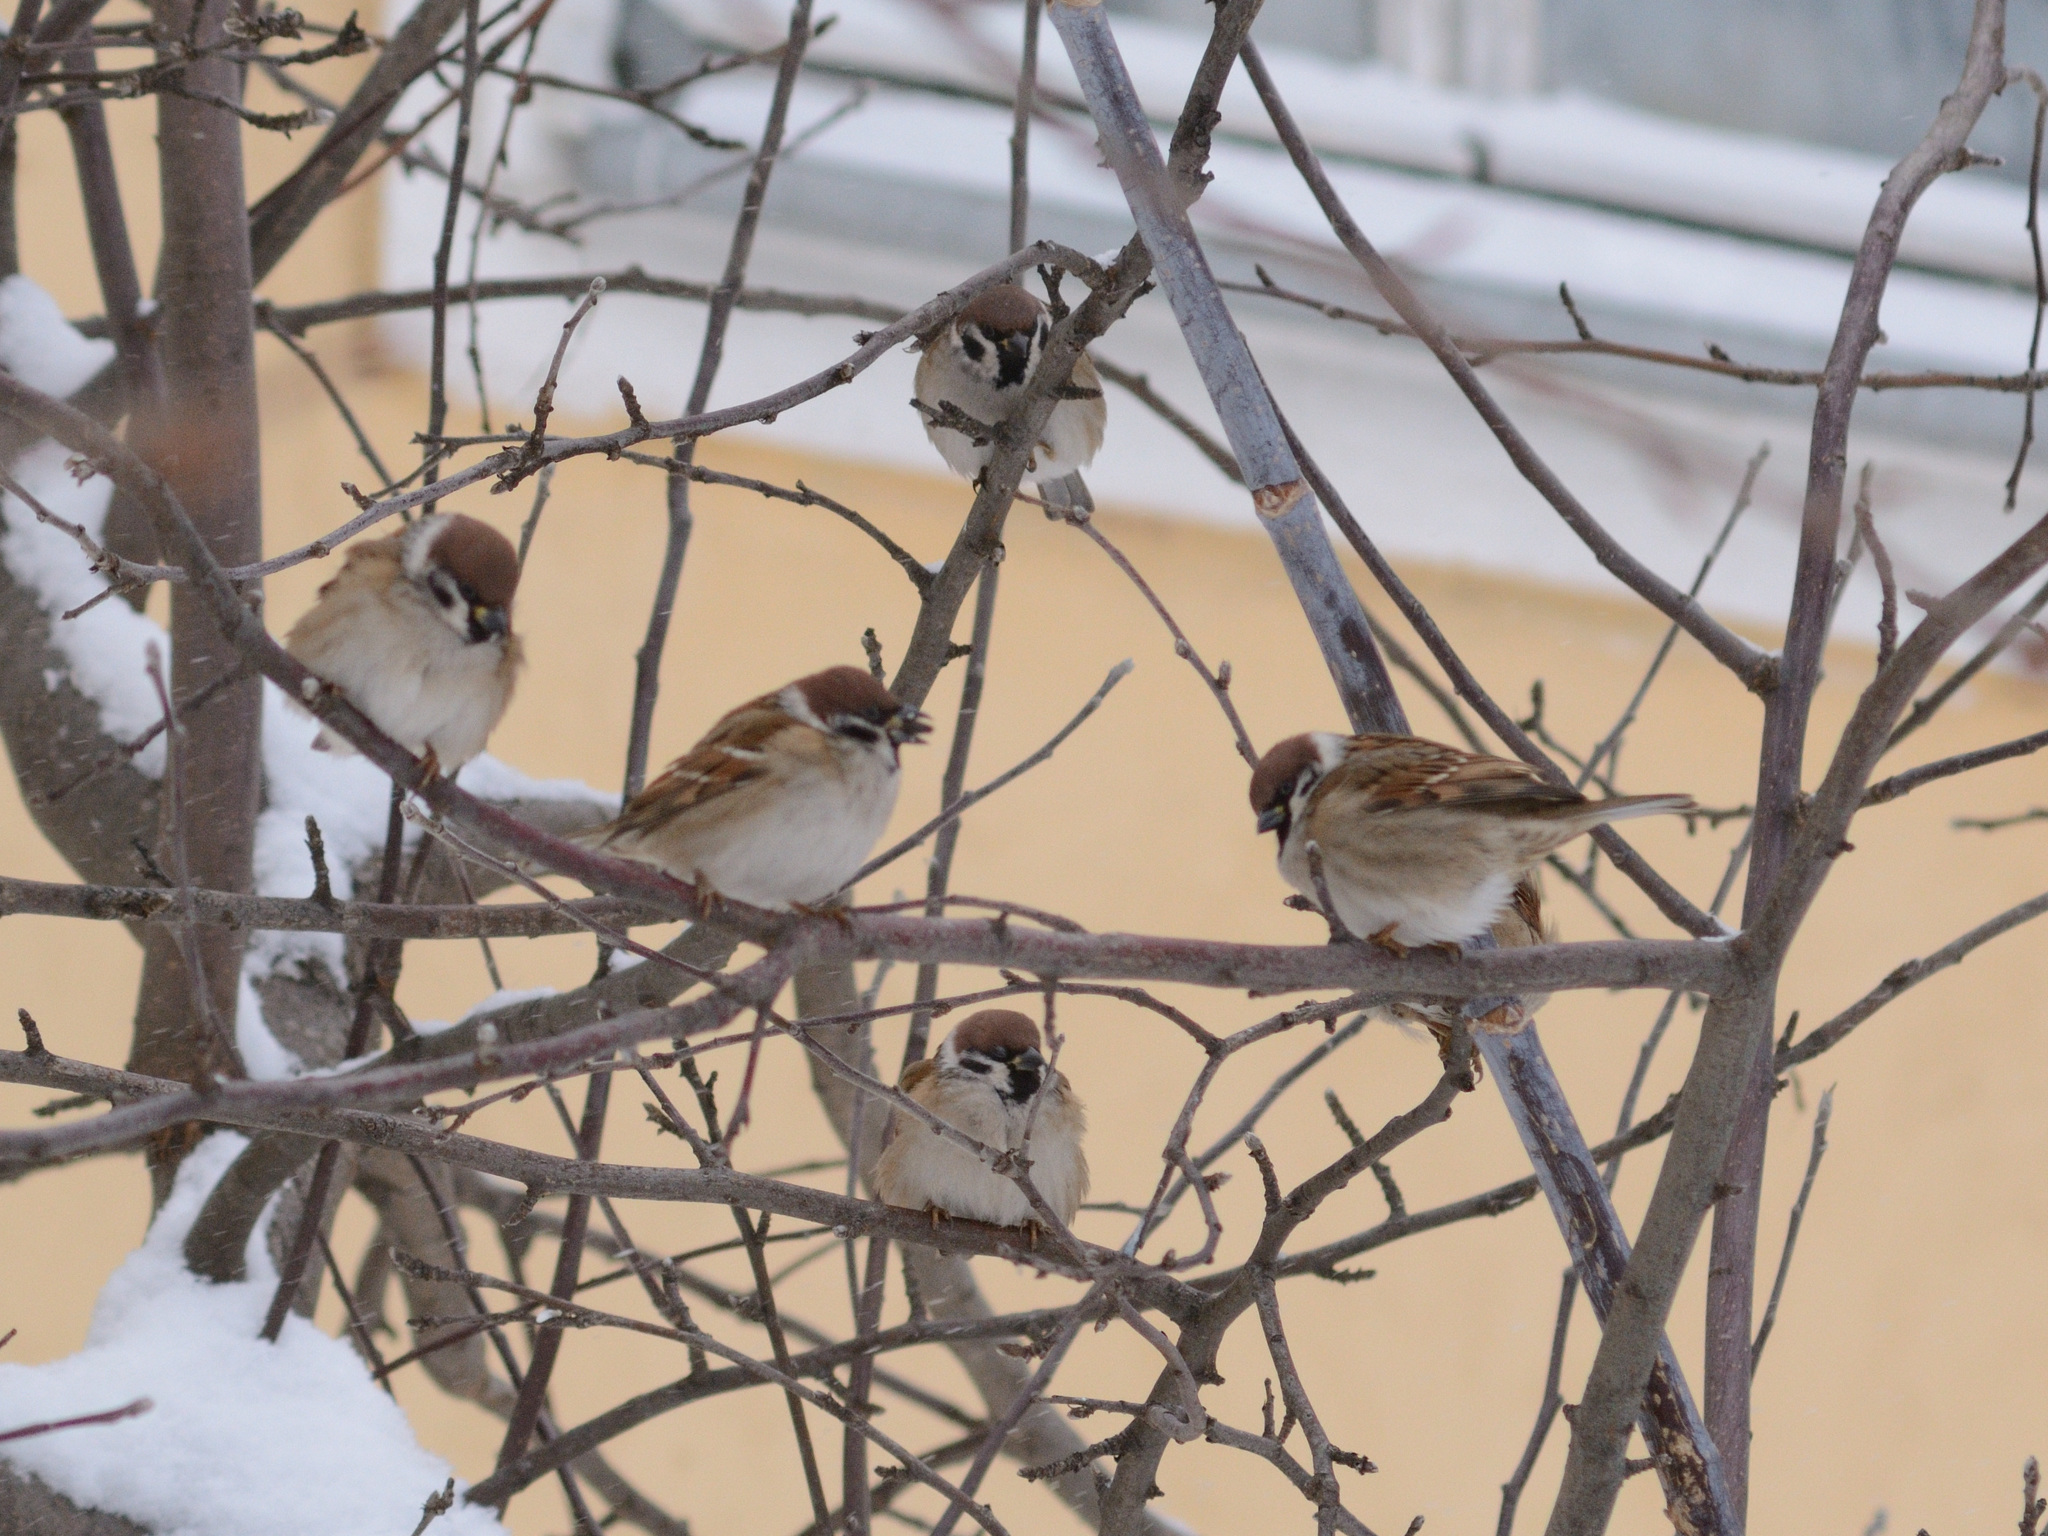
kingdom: Animalia
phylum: Chordata
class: Aves
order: Passeriformes
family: Passeridae
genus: Passer
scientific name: Passer montanus
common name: Eurasian tree sparrow
